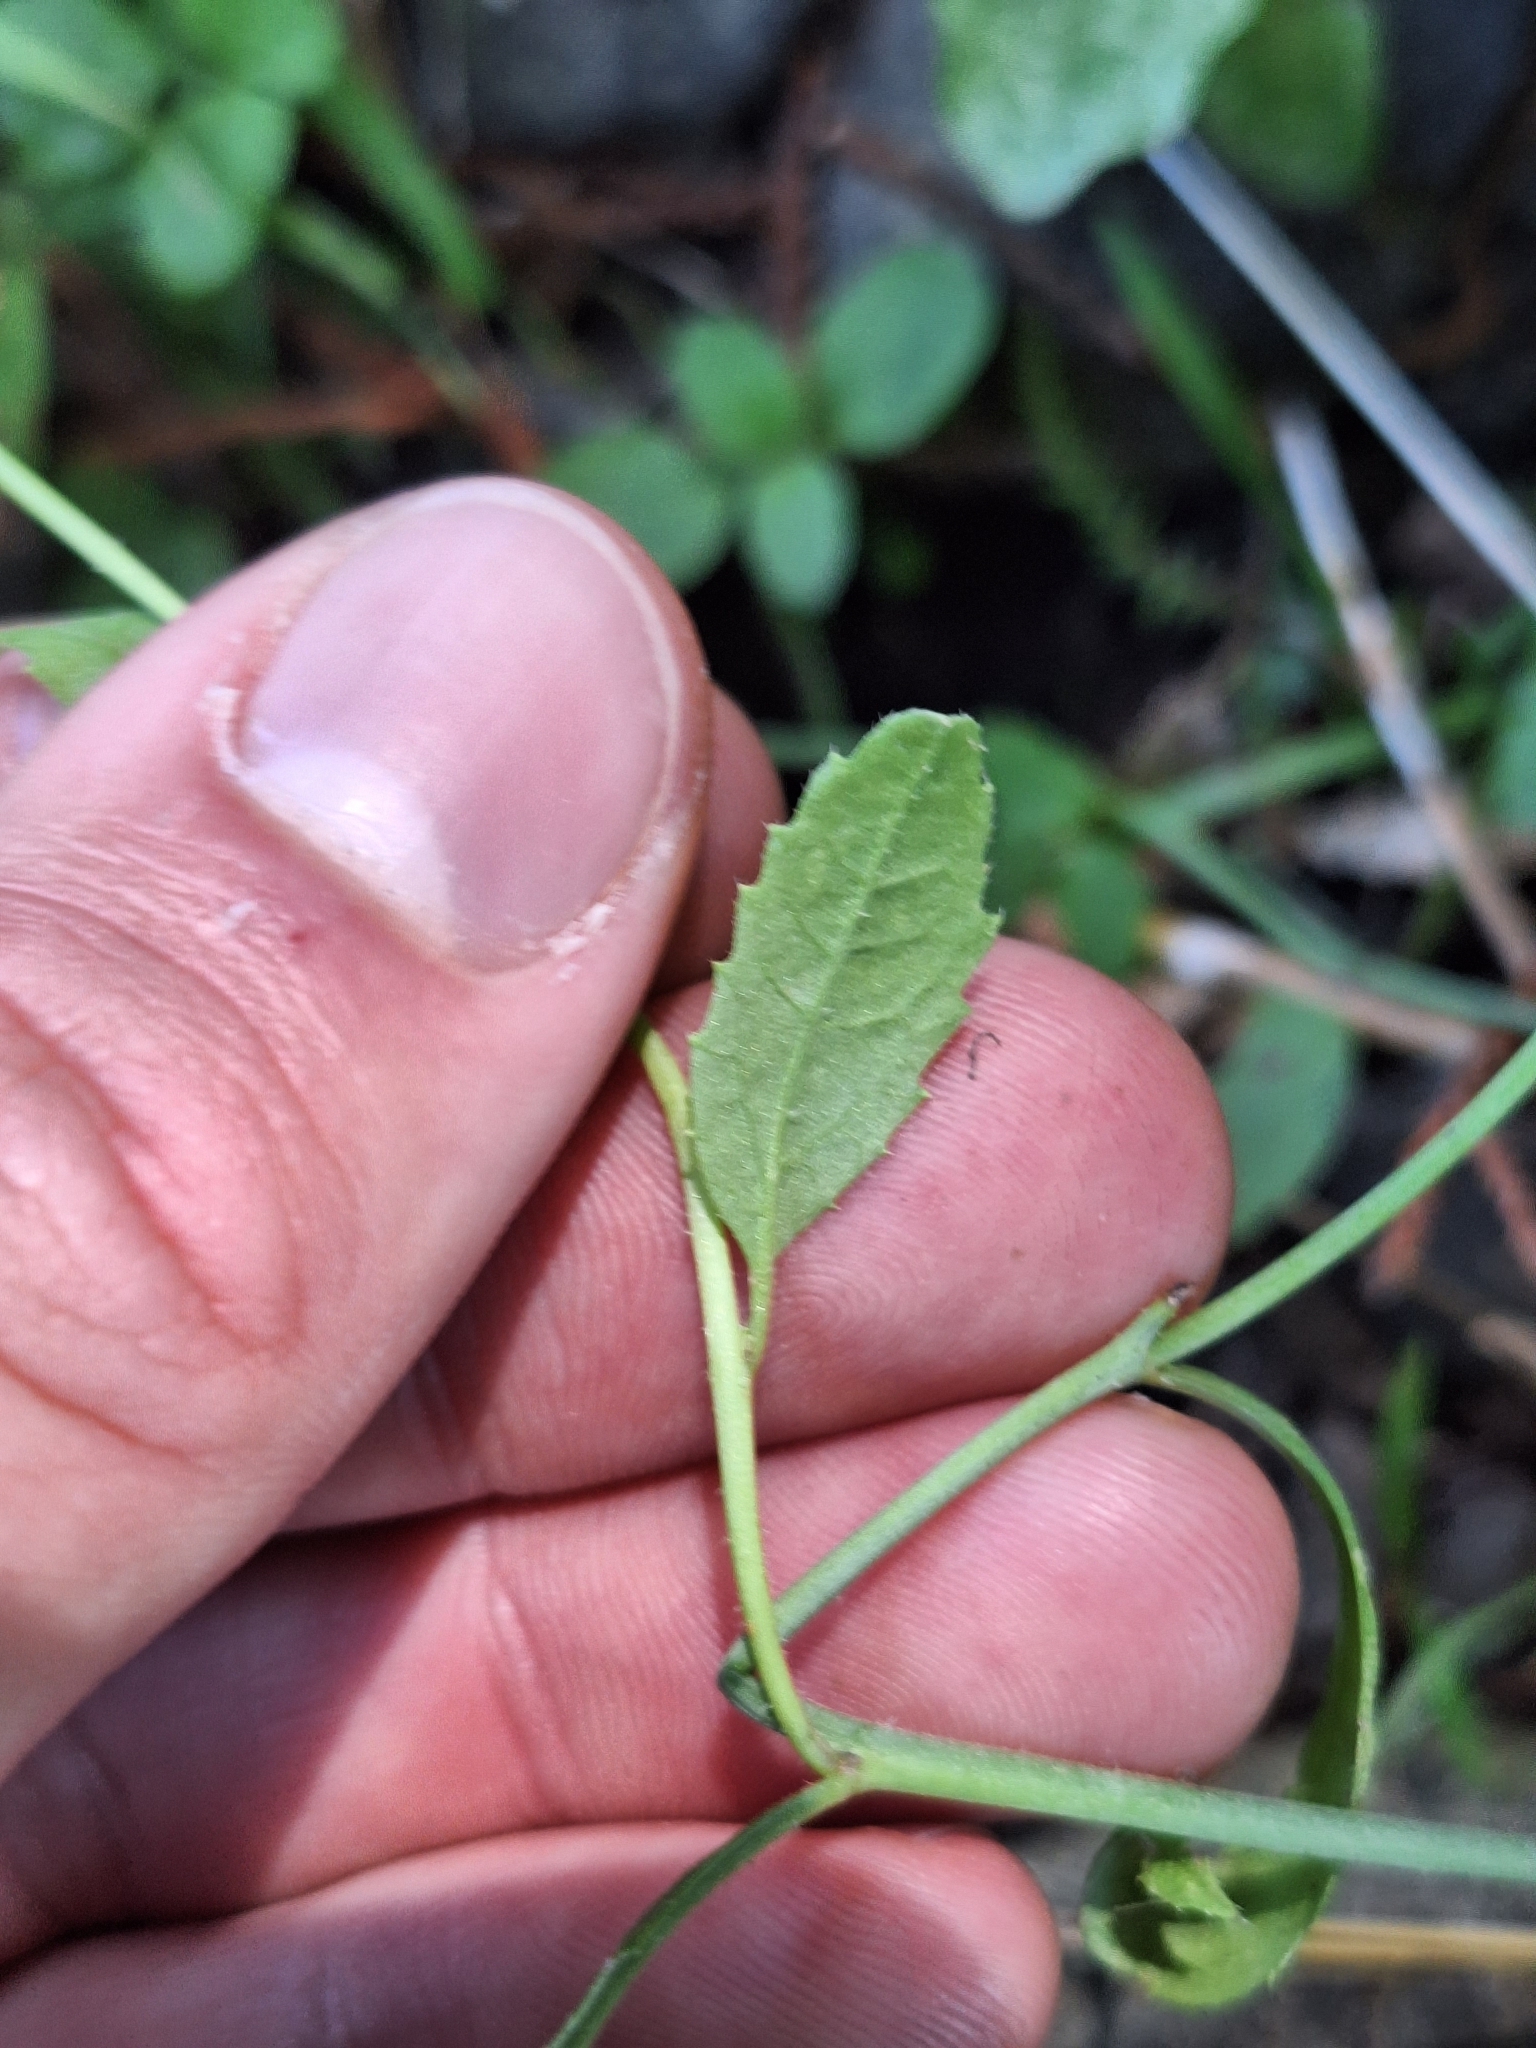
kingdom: Plantae
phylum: Tracheophyta
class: Magnoliopsida
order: Brassicales
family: Brassicaceae
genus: Raphanus
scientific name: Raphanus raphanistrum
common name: Wild radish
